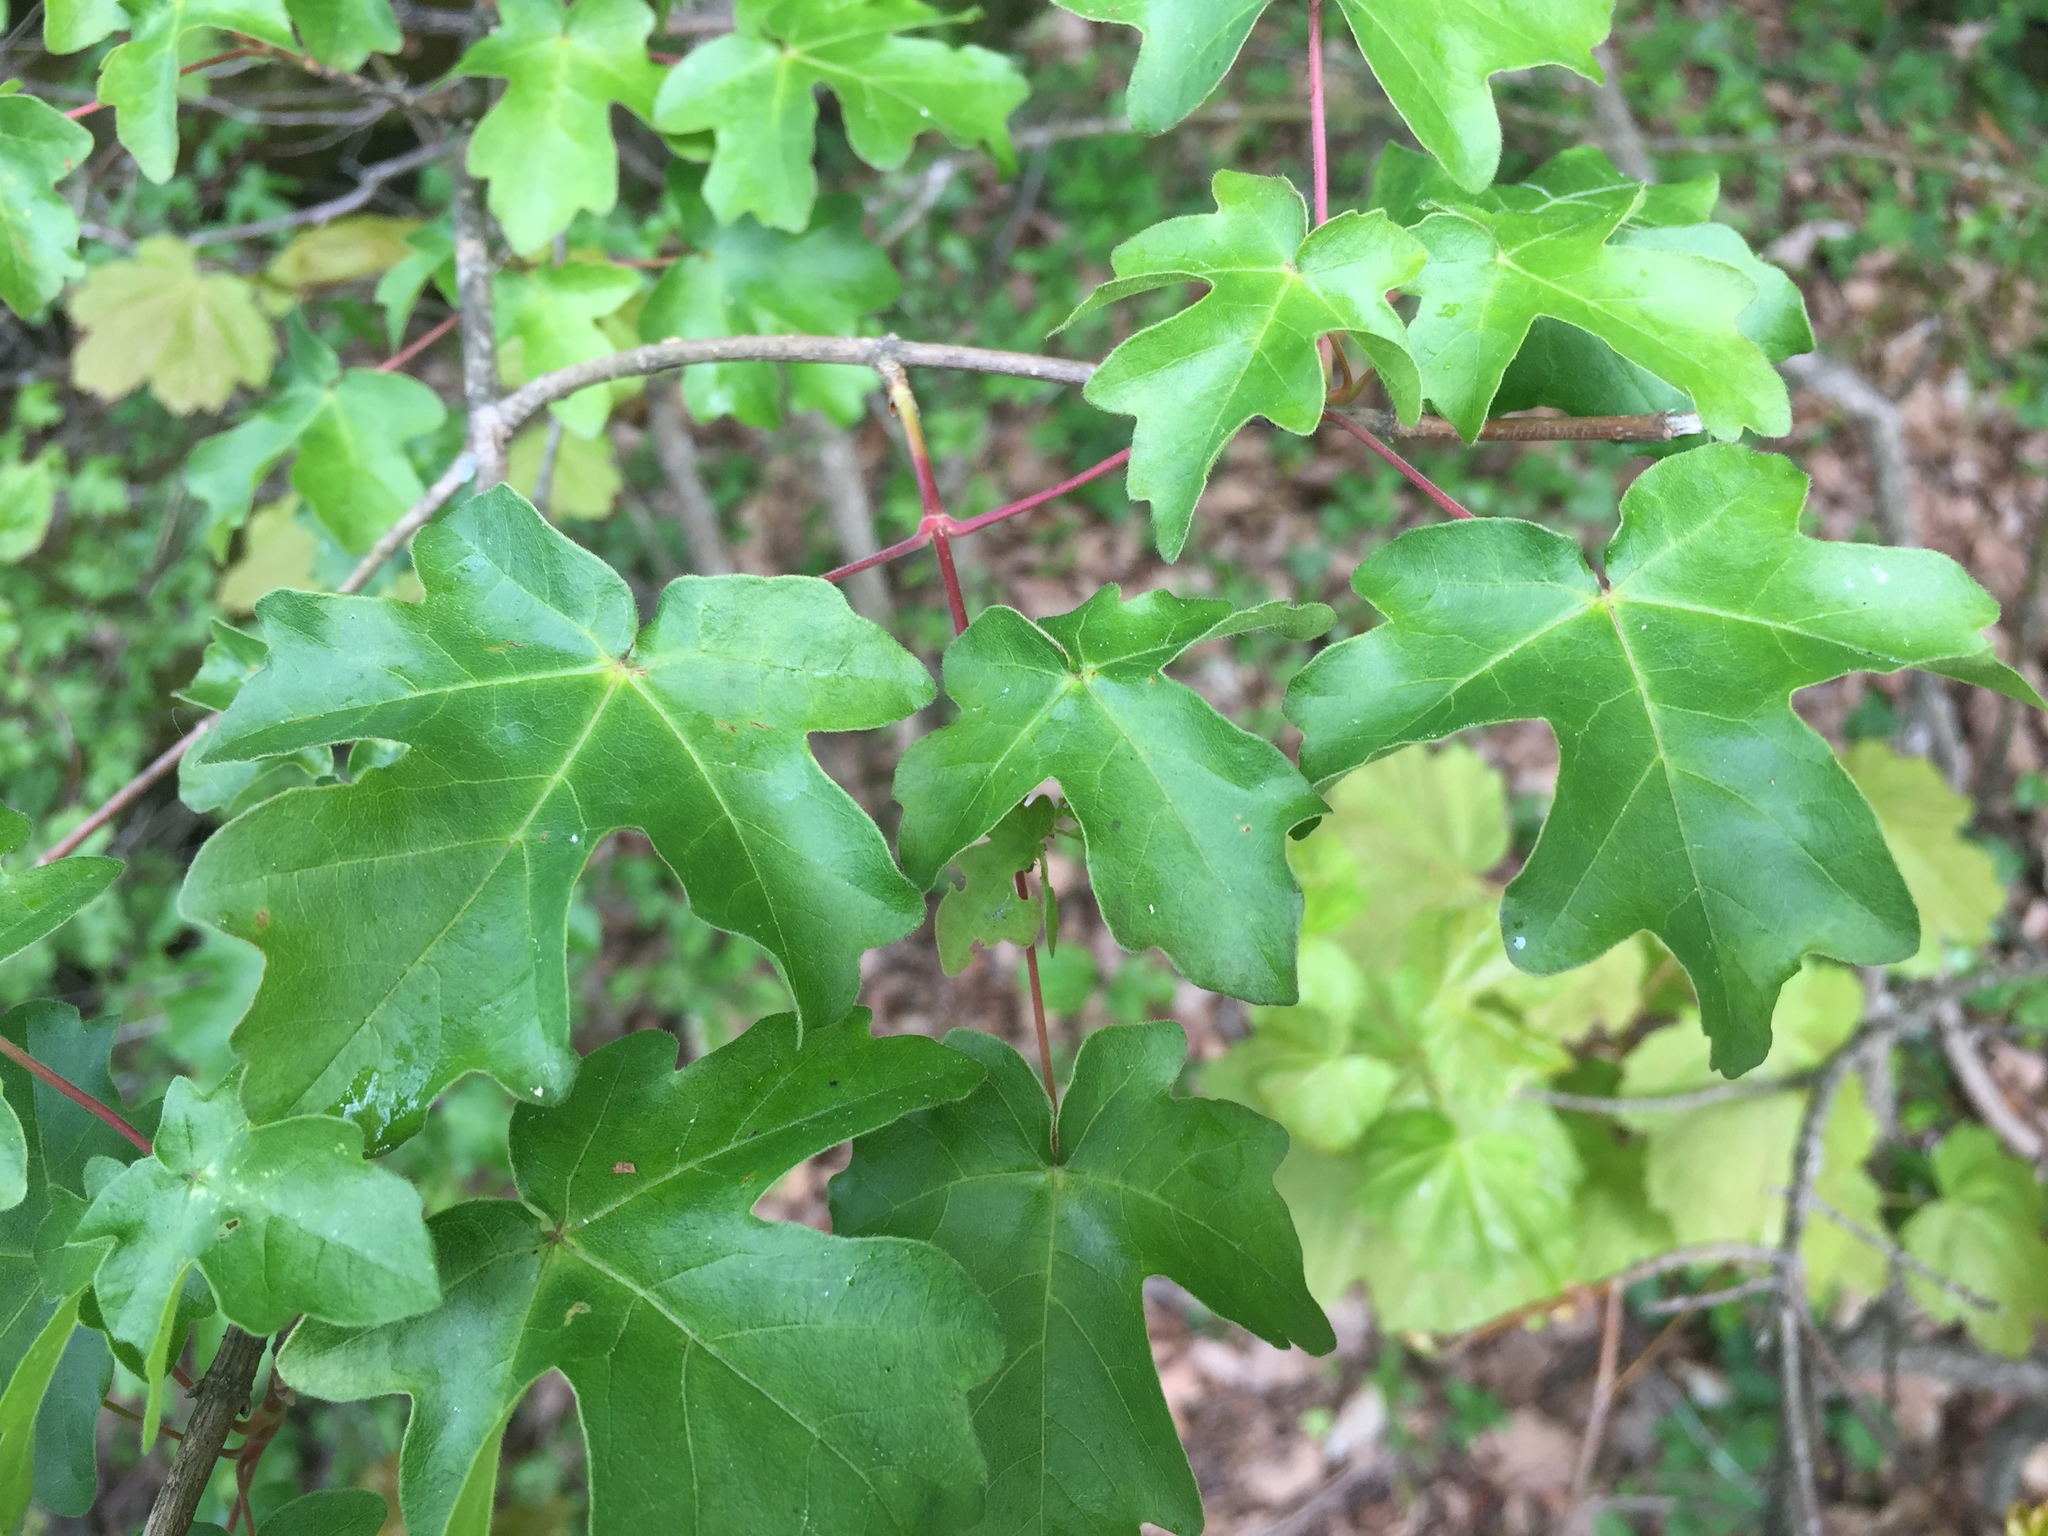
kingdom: Plantae
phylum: Tracheophyta
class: Magnoliopsida
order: Sapindales
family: Sapindaceae
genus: Acer
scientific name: Acer campestre
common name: Field maple
